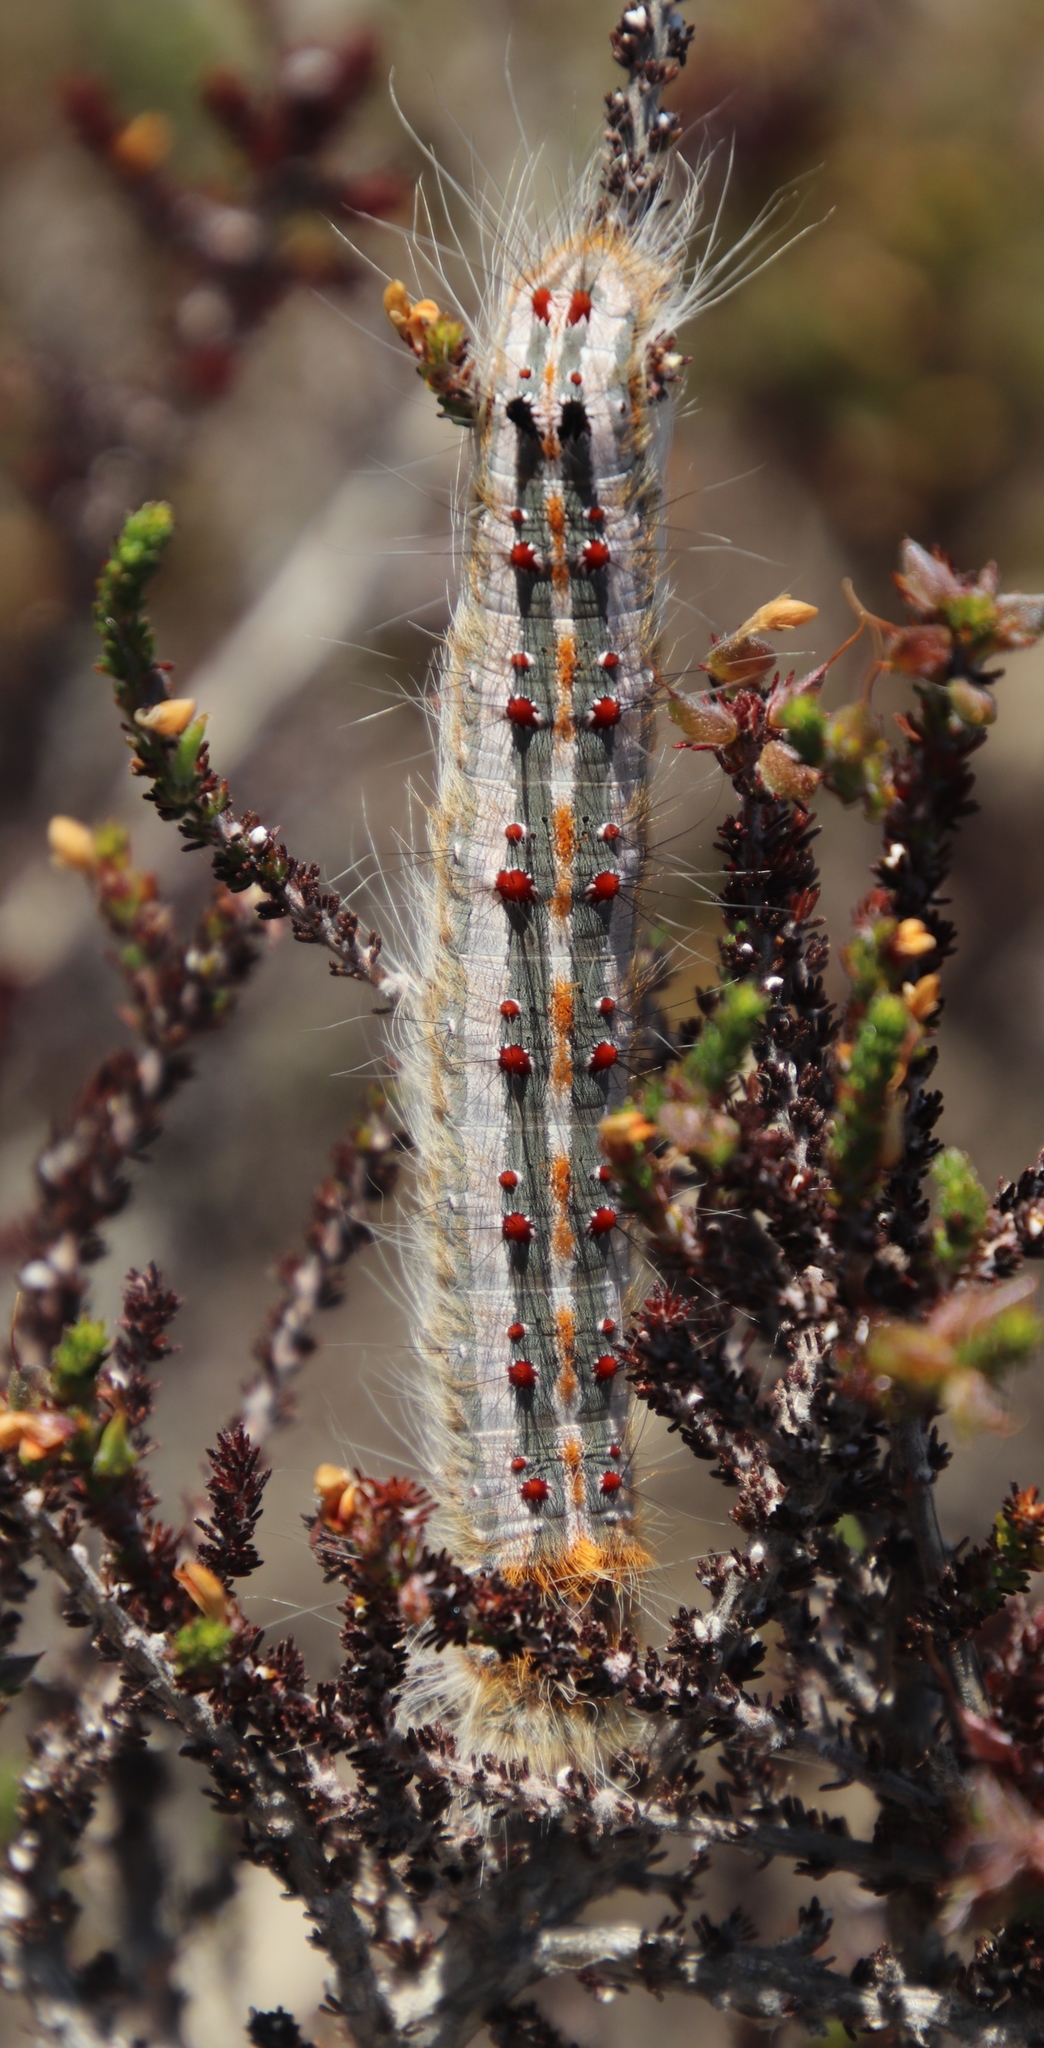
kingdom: Plantae
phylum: Tracheophyta
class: Magnoliopsida
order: Fabales
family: Fabaceae
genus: Aspalathus
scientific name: Aspalathus hispida
